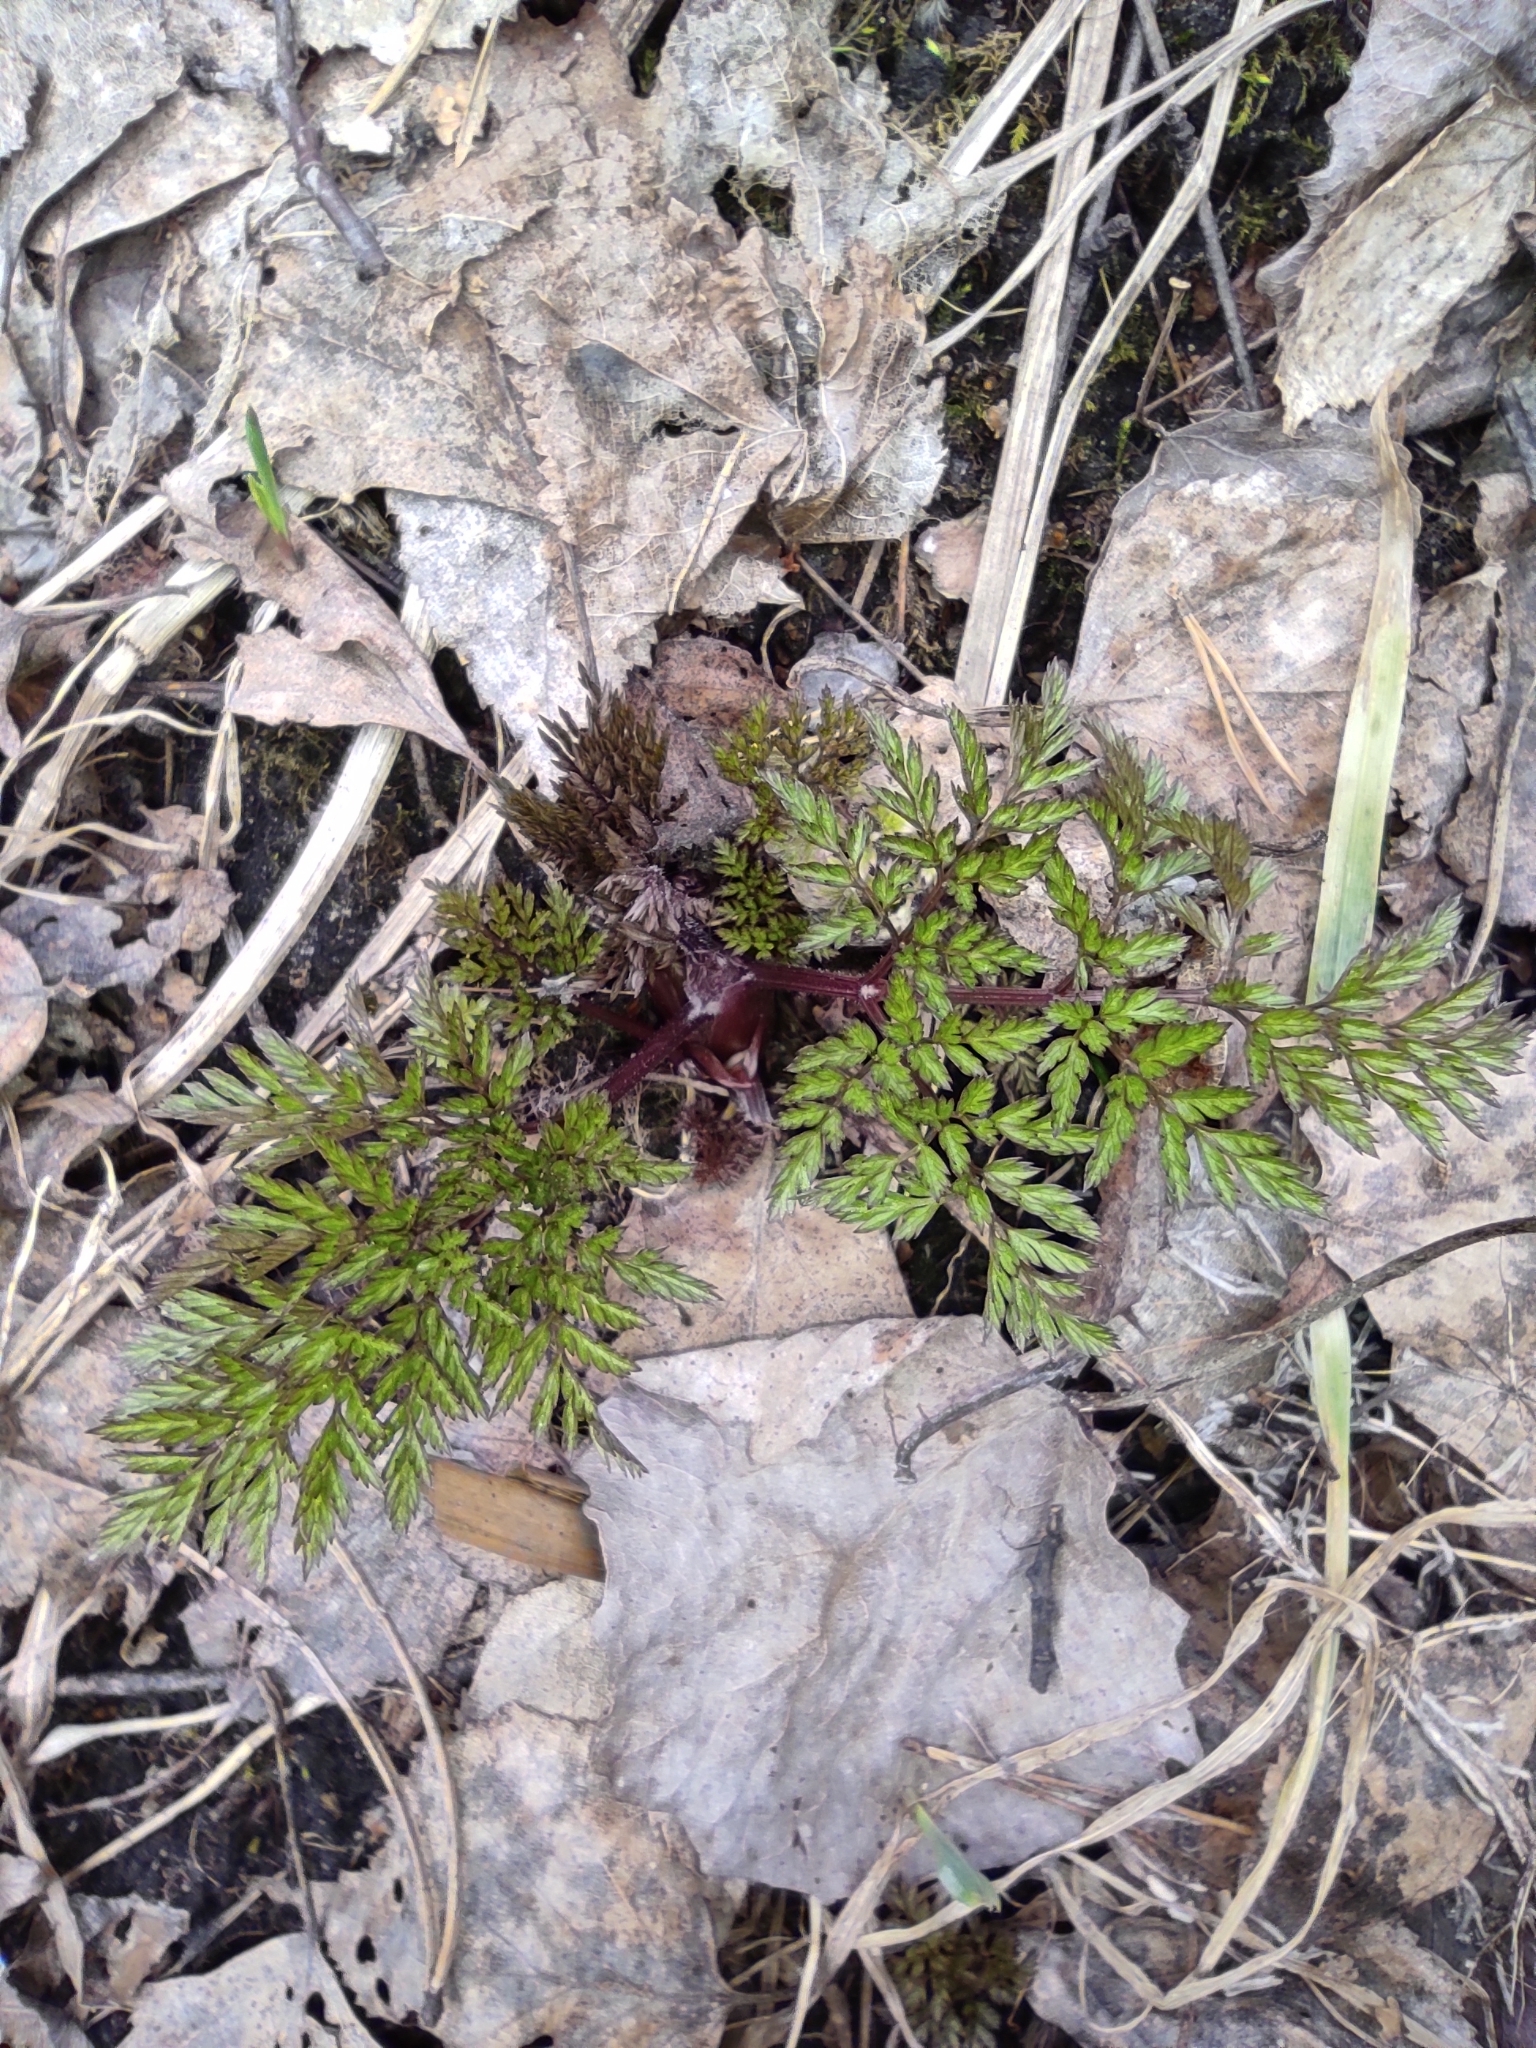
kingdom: Plantae
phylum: Tracheophyta
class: Magnoliopsida
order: Apiales
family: Apiaceae
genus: Anthriscus
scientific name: Anthriscus sylvestris
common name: Cow parsley
